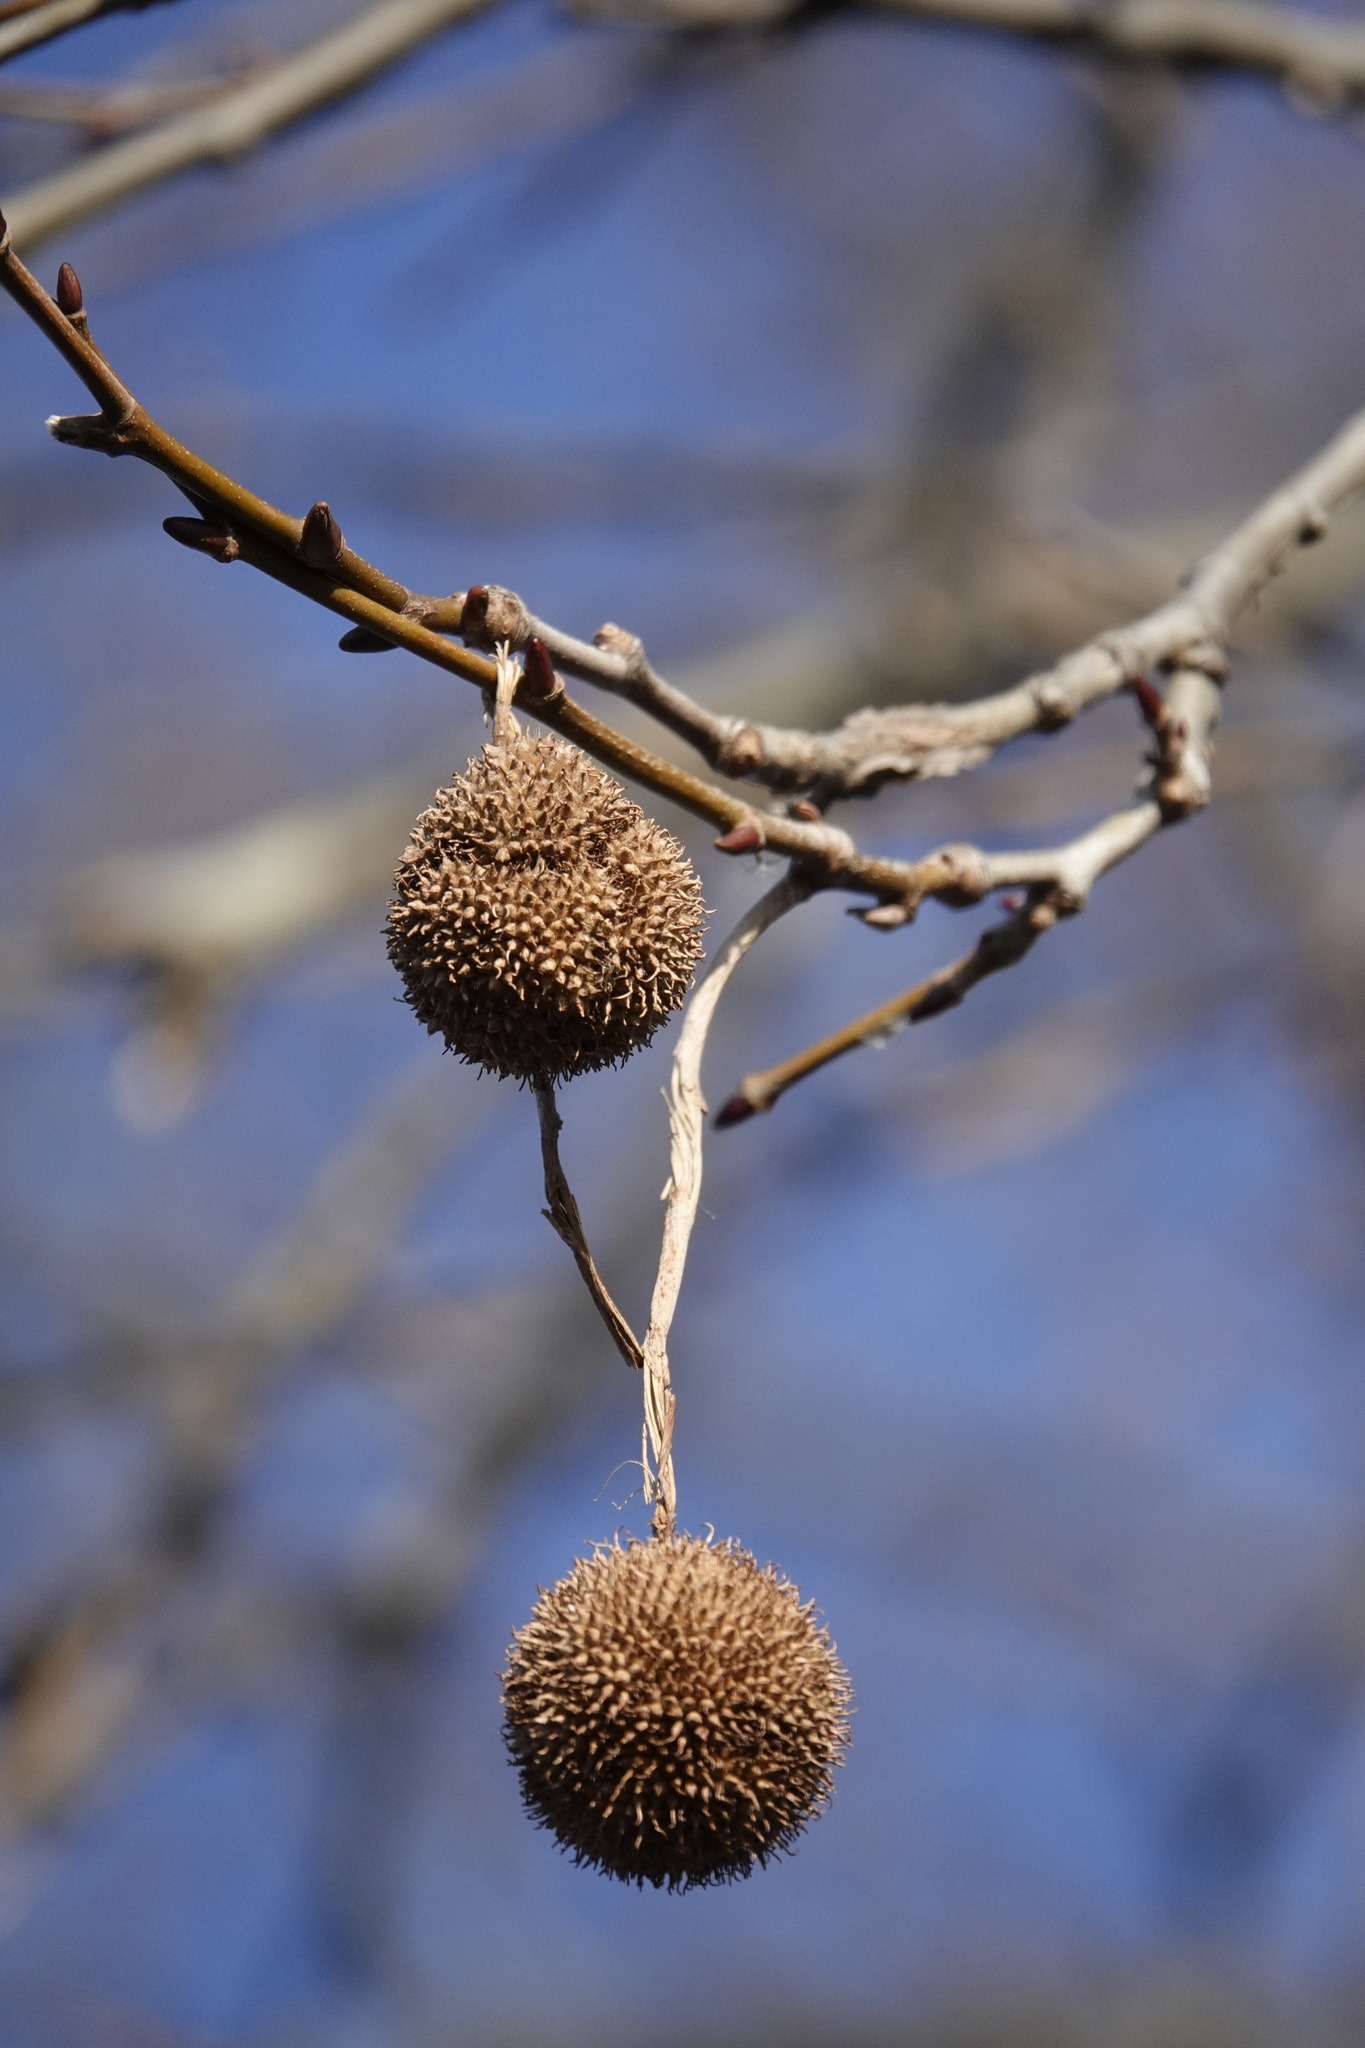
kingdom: Plantae
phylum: Tracheophyta
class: Magnoliopsida
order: Proteales
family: Platanaceae
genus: Platanus
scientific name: Platanus occidentalis
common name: American sycamore
